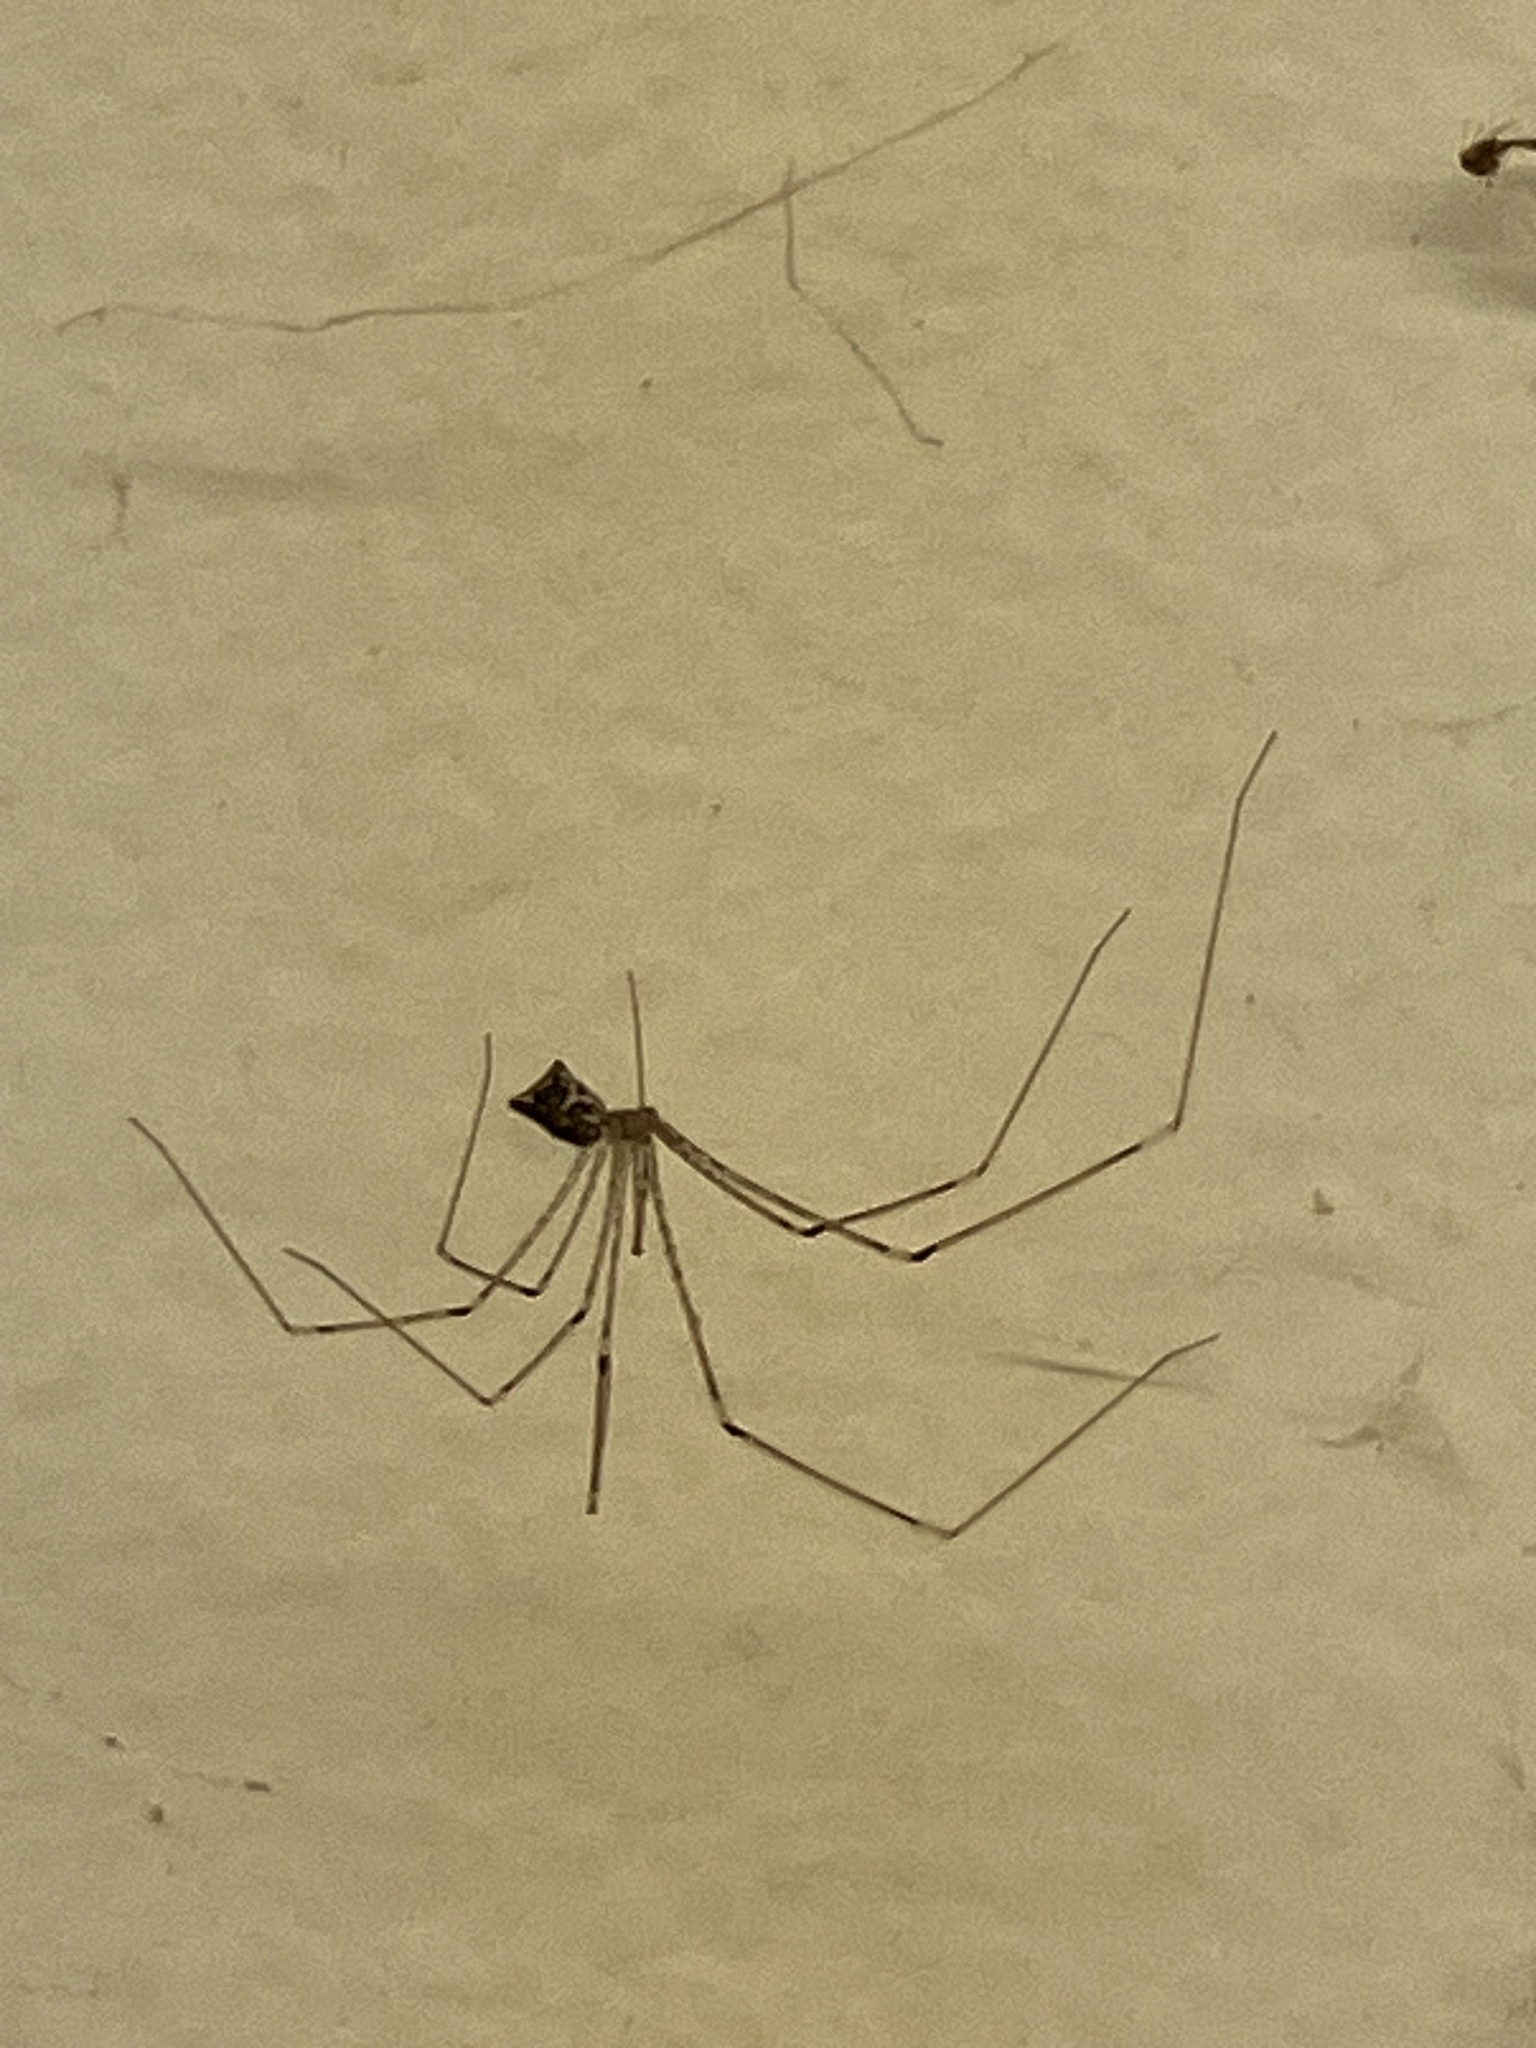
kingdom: Animalia
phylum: Arthropoda
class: Arachnida
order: Araneae
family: Pholcidae
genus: Crossopriza
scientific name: Crossopriza lyoni
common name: Cellar spiders
